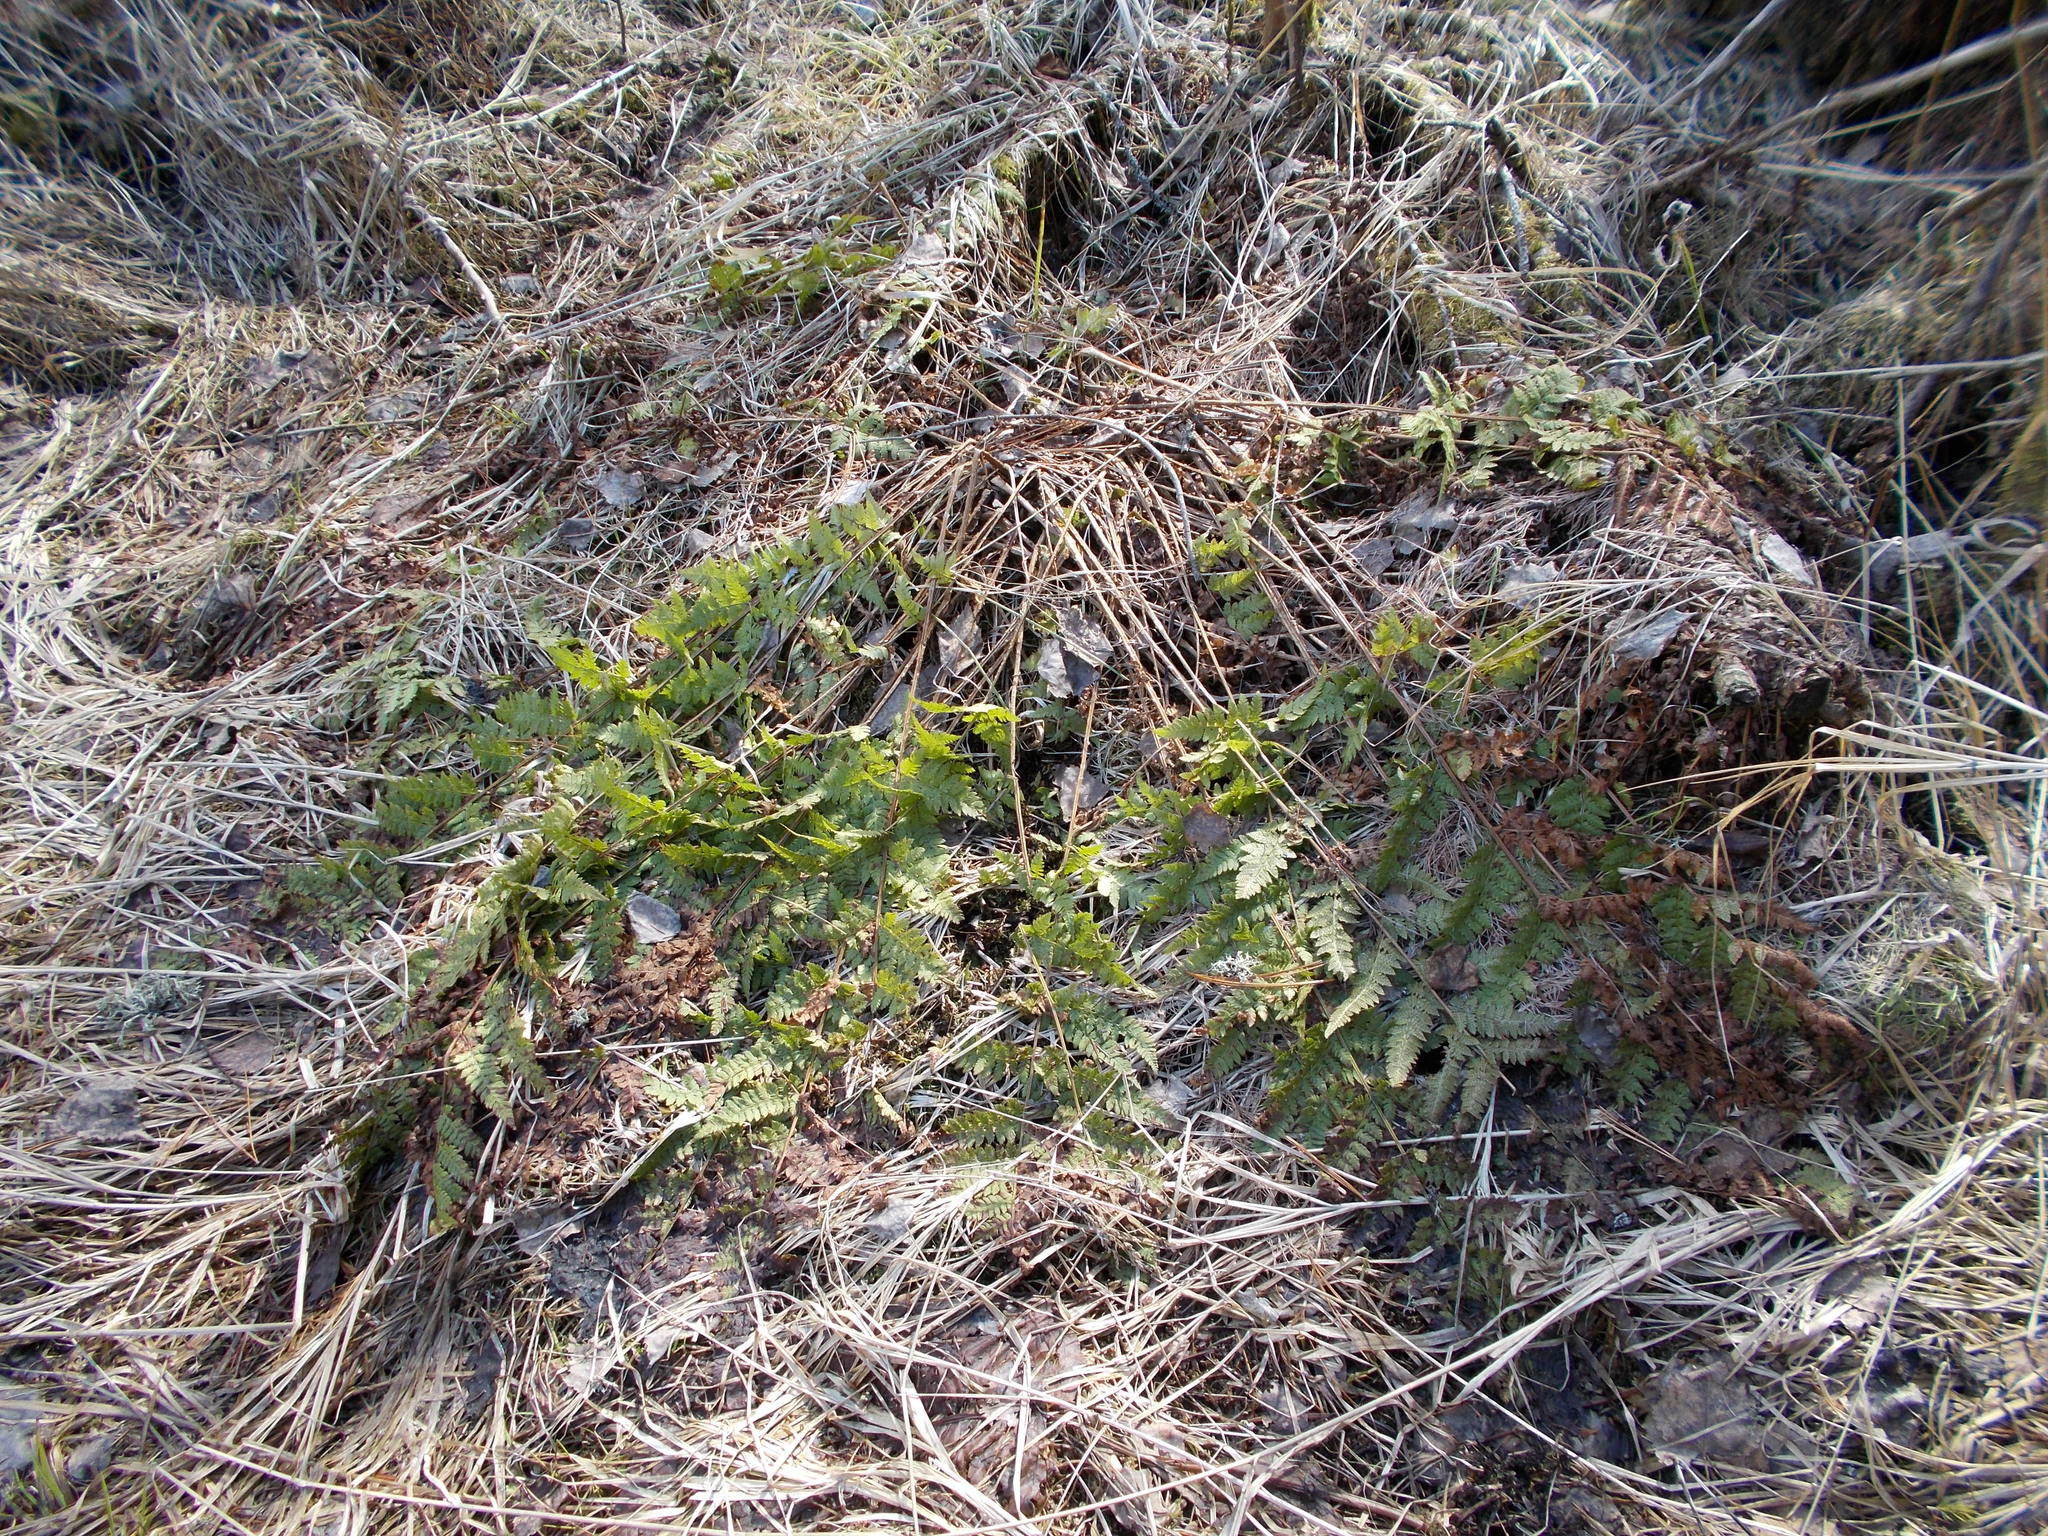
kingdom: Plantae
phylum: Tracheophyta
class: Polypodiopsida
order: Polypodiales
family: Dryopteridaceae
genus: Dryopteris
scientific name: Dryopteris carthusiana
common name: Narrow buckler-fern
